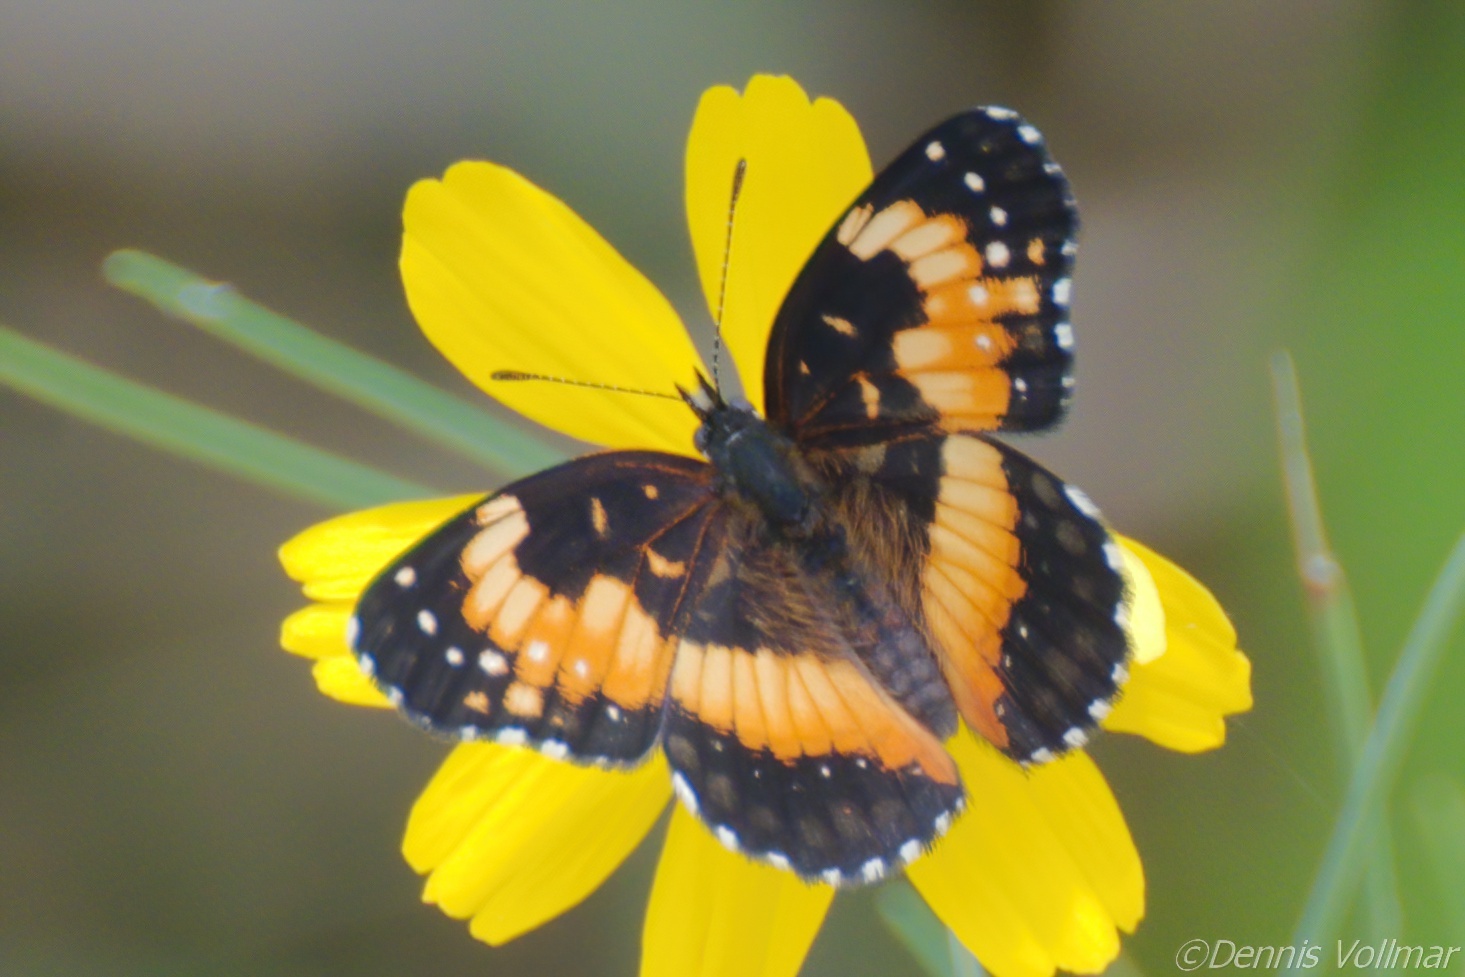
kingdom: Animalia
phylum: Arthropoda
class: Insecta
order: Lepidoptera
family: Nymphalidae
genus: Chlosyne
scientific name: Chlosyne lacinia
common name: Bordered patch
